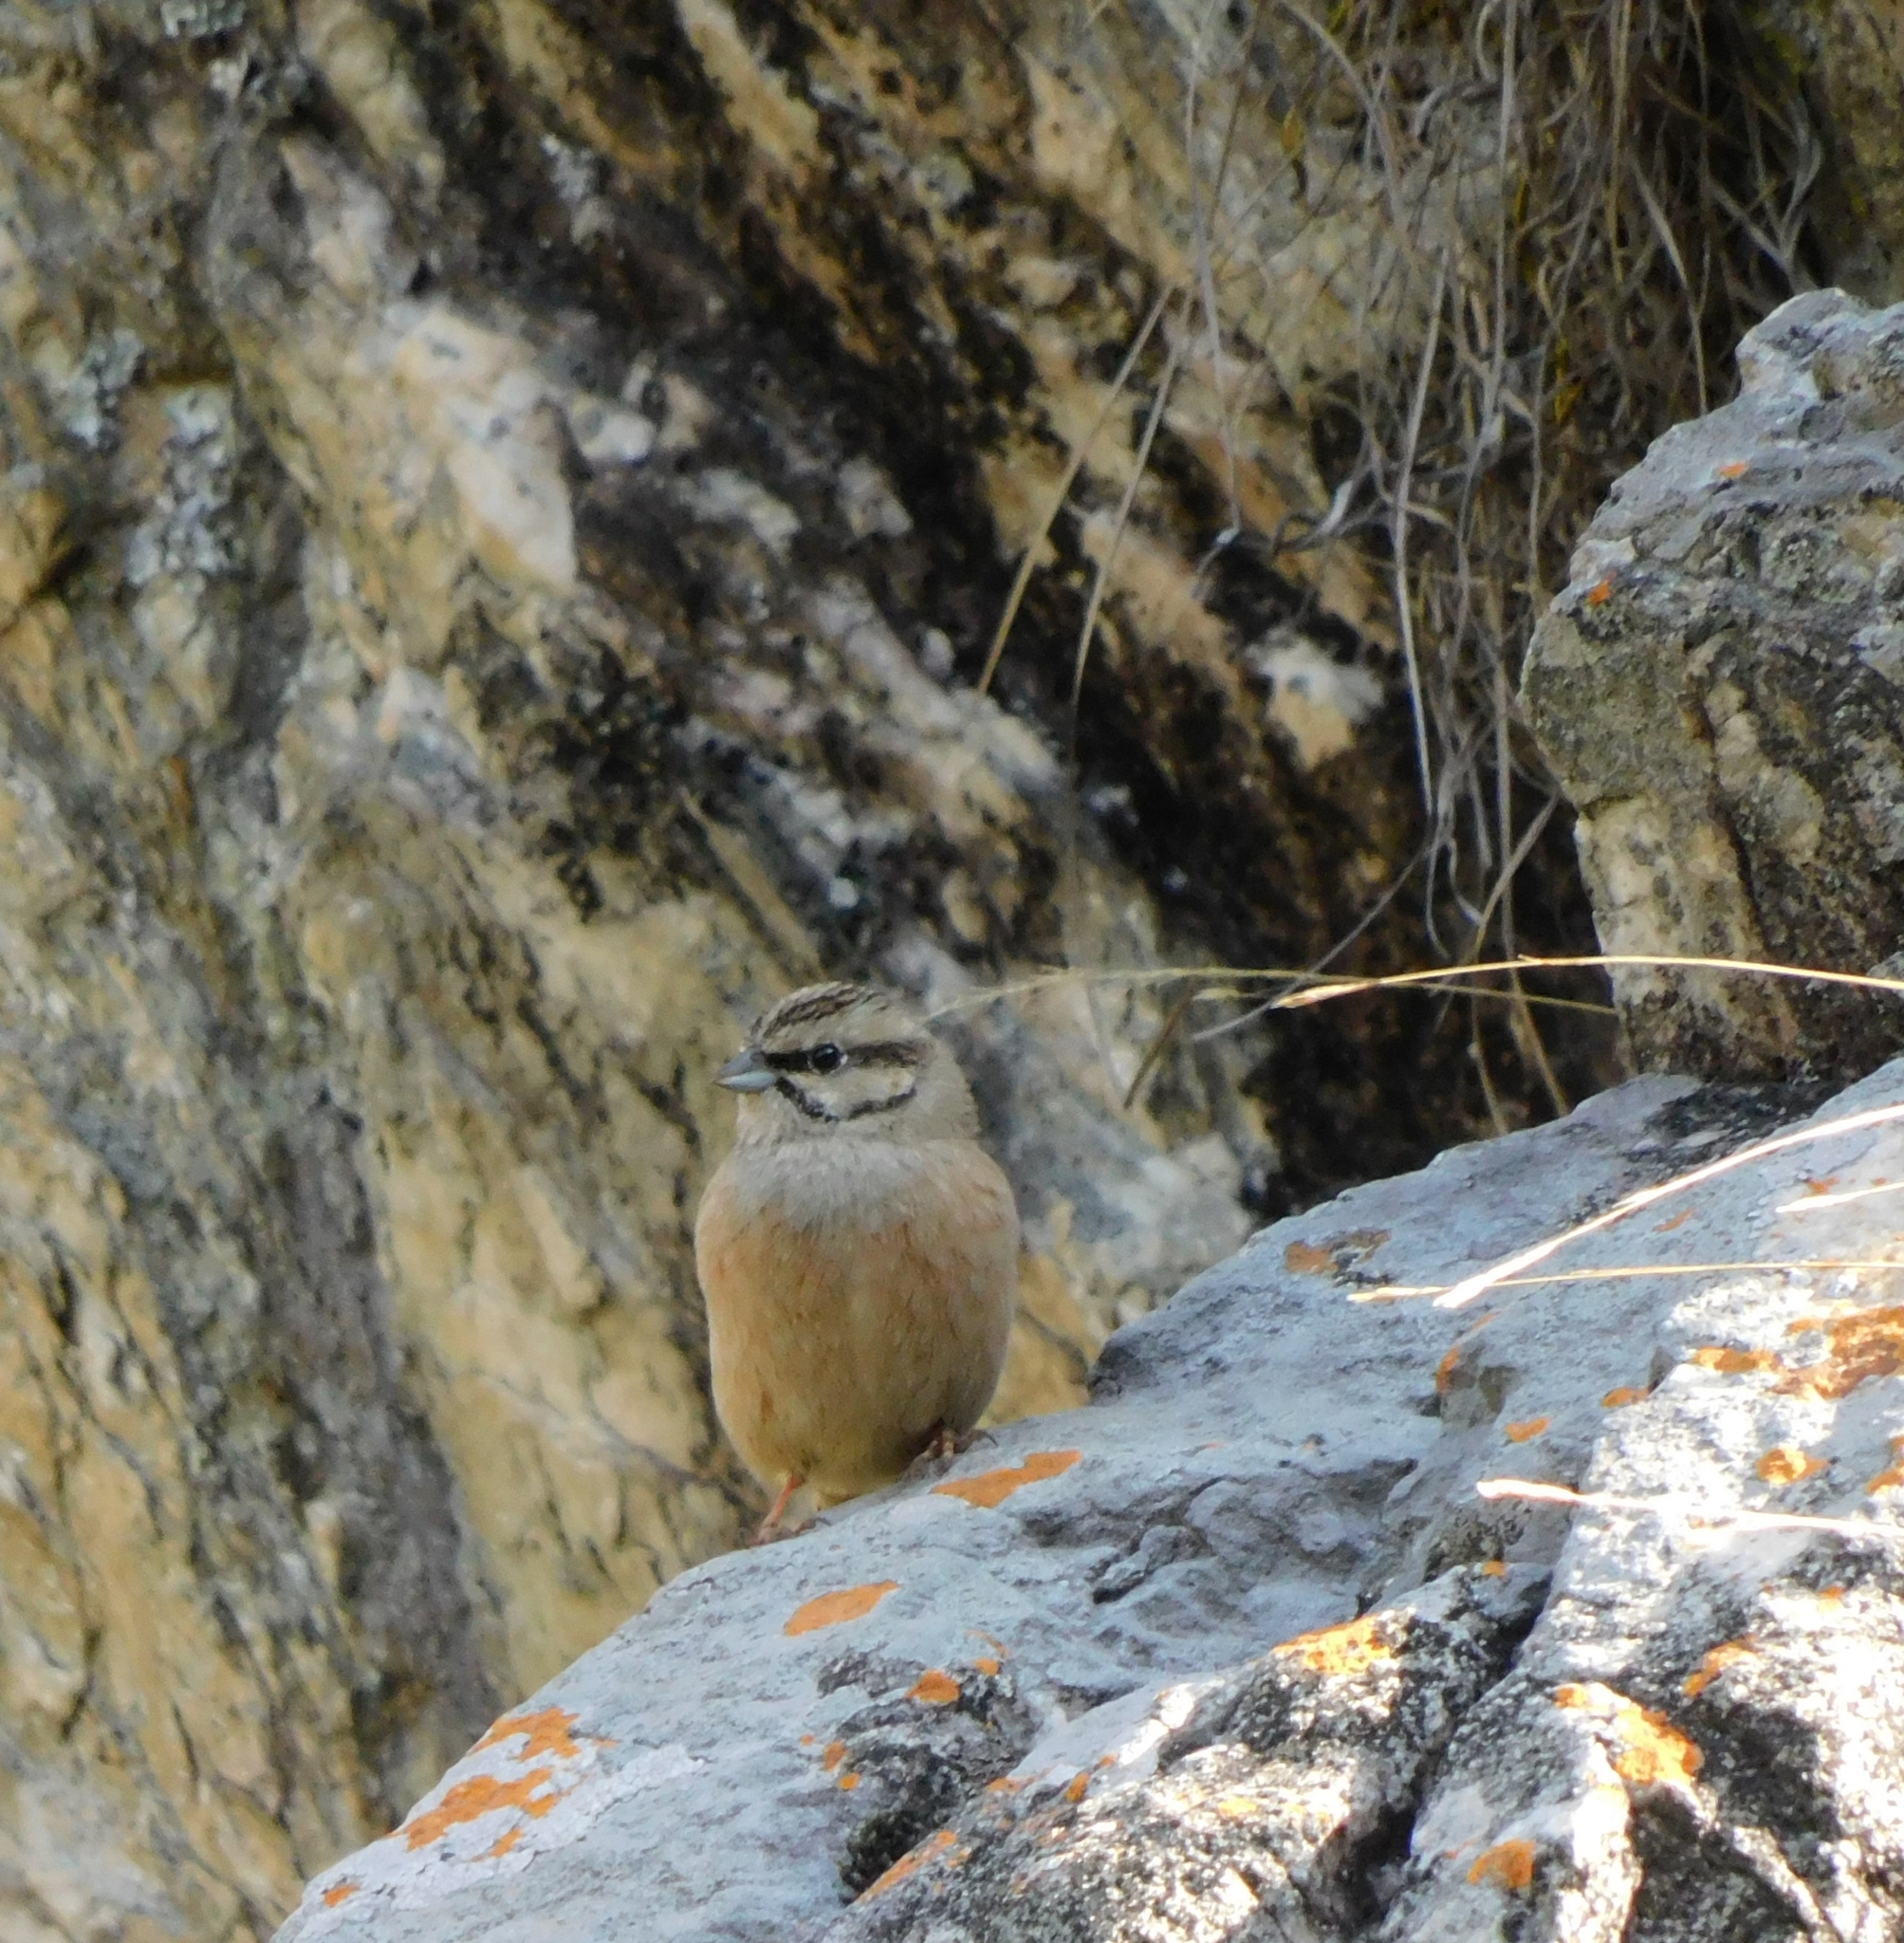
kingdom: Animalia
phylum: Chordata
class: Aves
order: Passeriformes
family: Emberizidae
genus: Emberiza
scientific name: Emberiza cia
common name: Rock bunting
